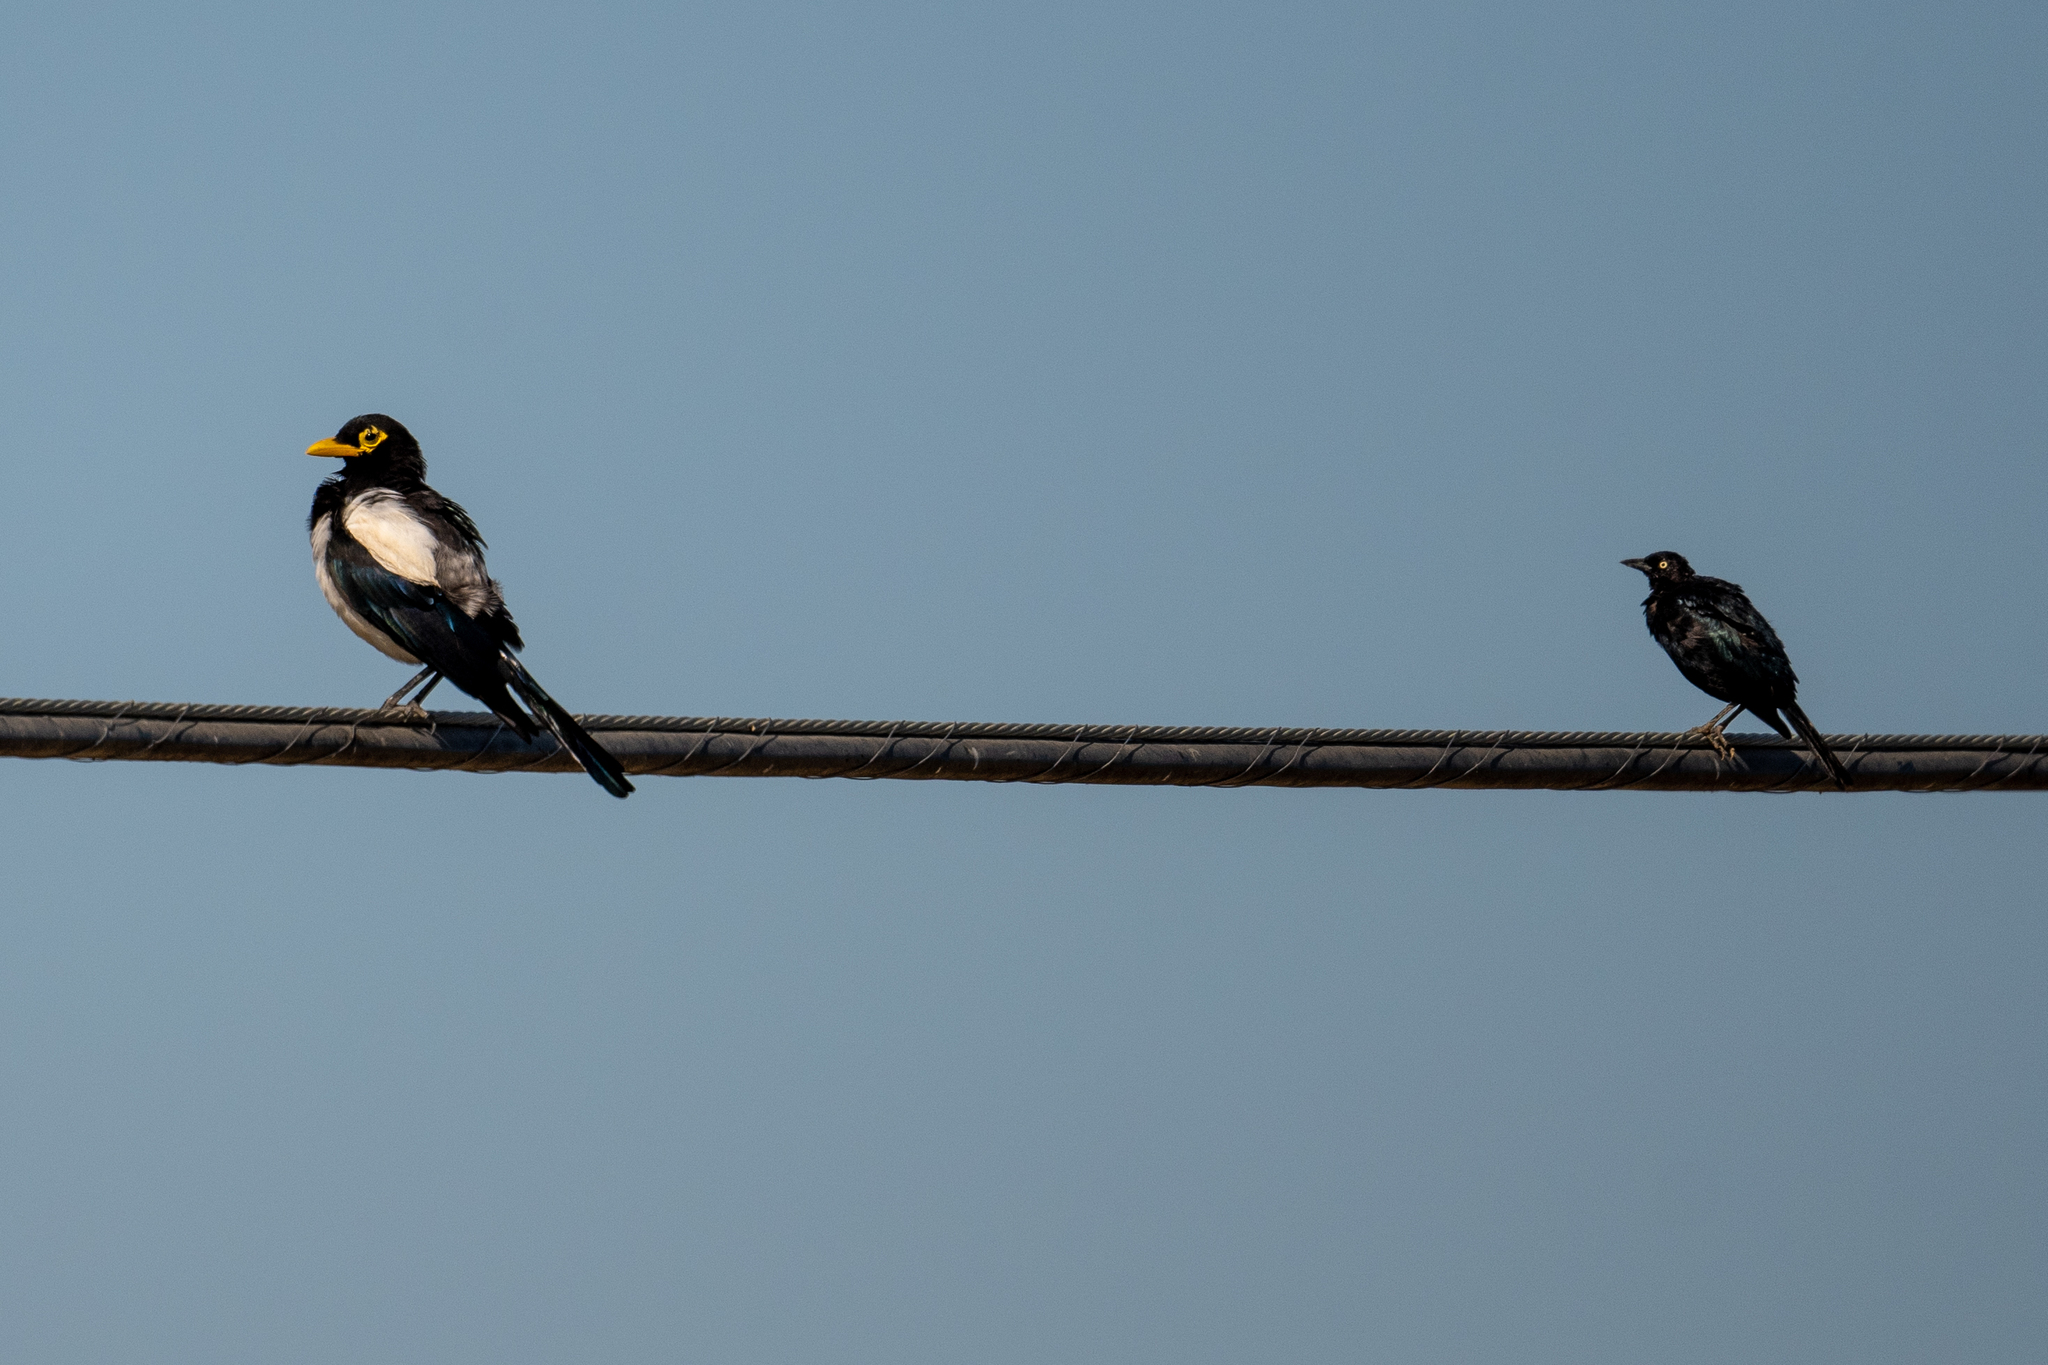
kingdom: Animalia
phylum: Chordata
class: Aves
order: Passeriformes
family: Icteridae
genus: Euphagus
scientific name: Euphagus cyanocephalus
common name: Brewer's blackbird
